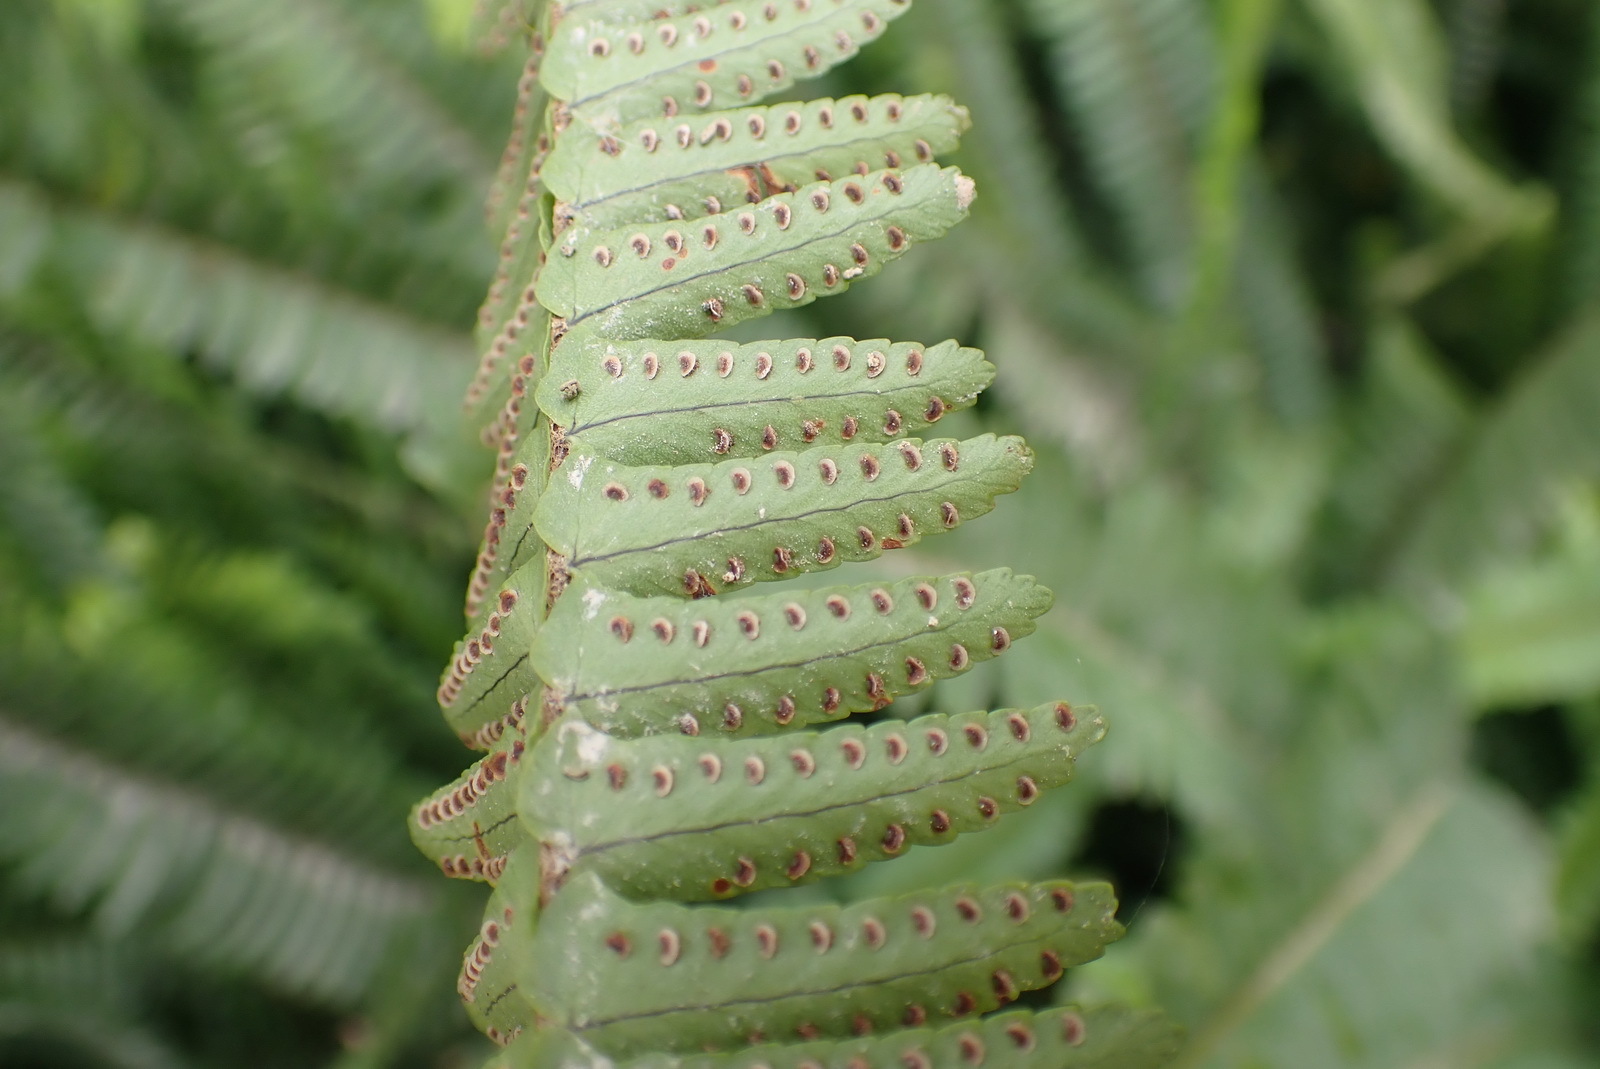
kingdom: Plantae
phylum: Tracheophyta
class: Polypodiopsida
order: Polypodiales
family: Nephrolepidaceae
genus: Nephrolepis
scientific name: Nephrolepis cordifolia
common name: Narrow swordfern
